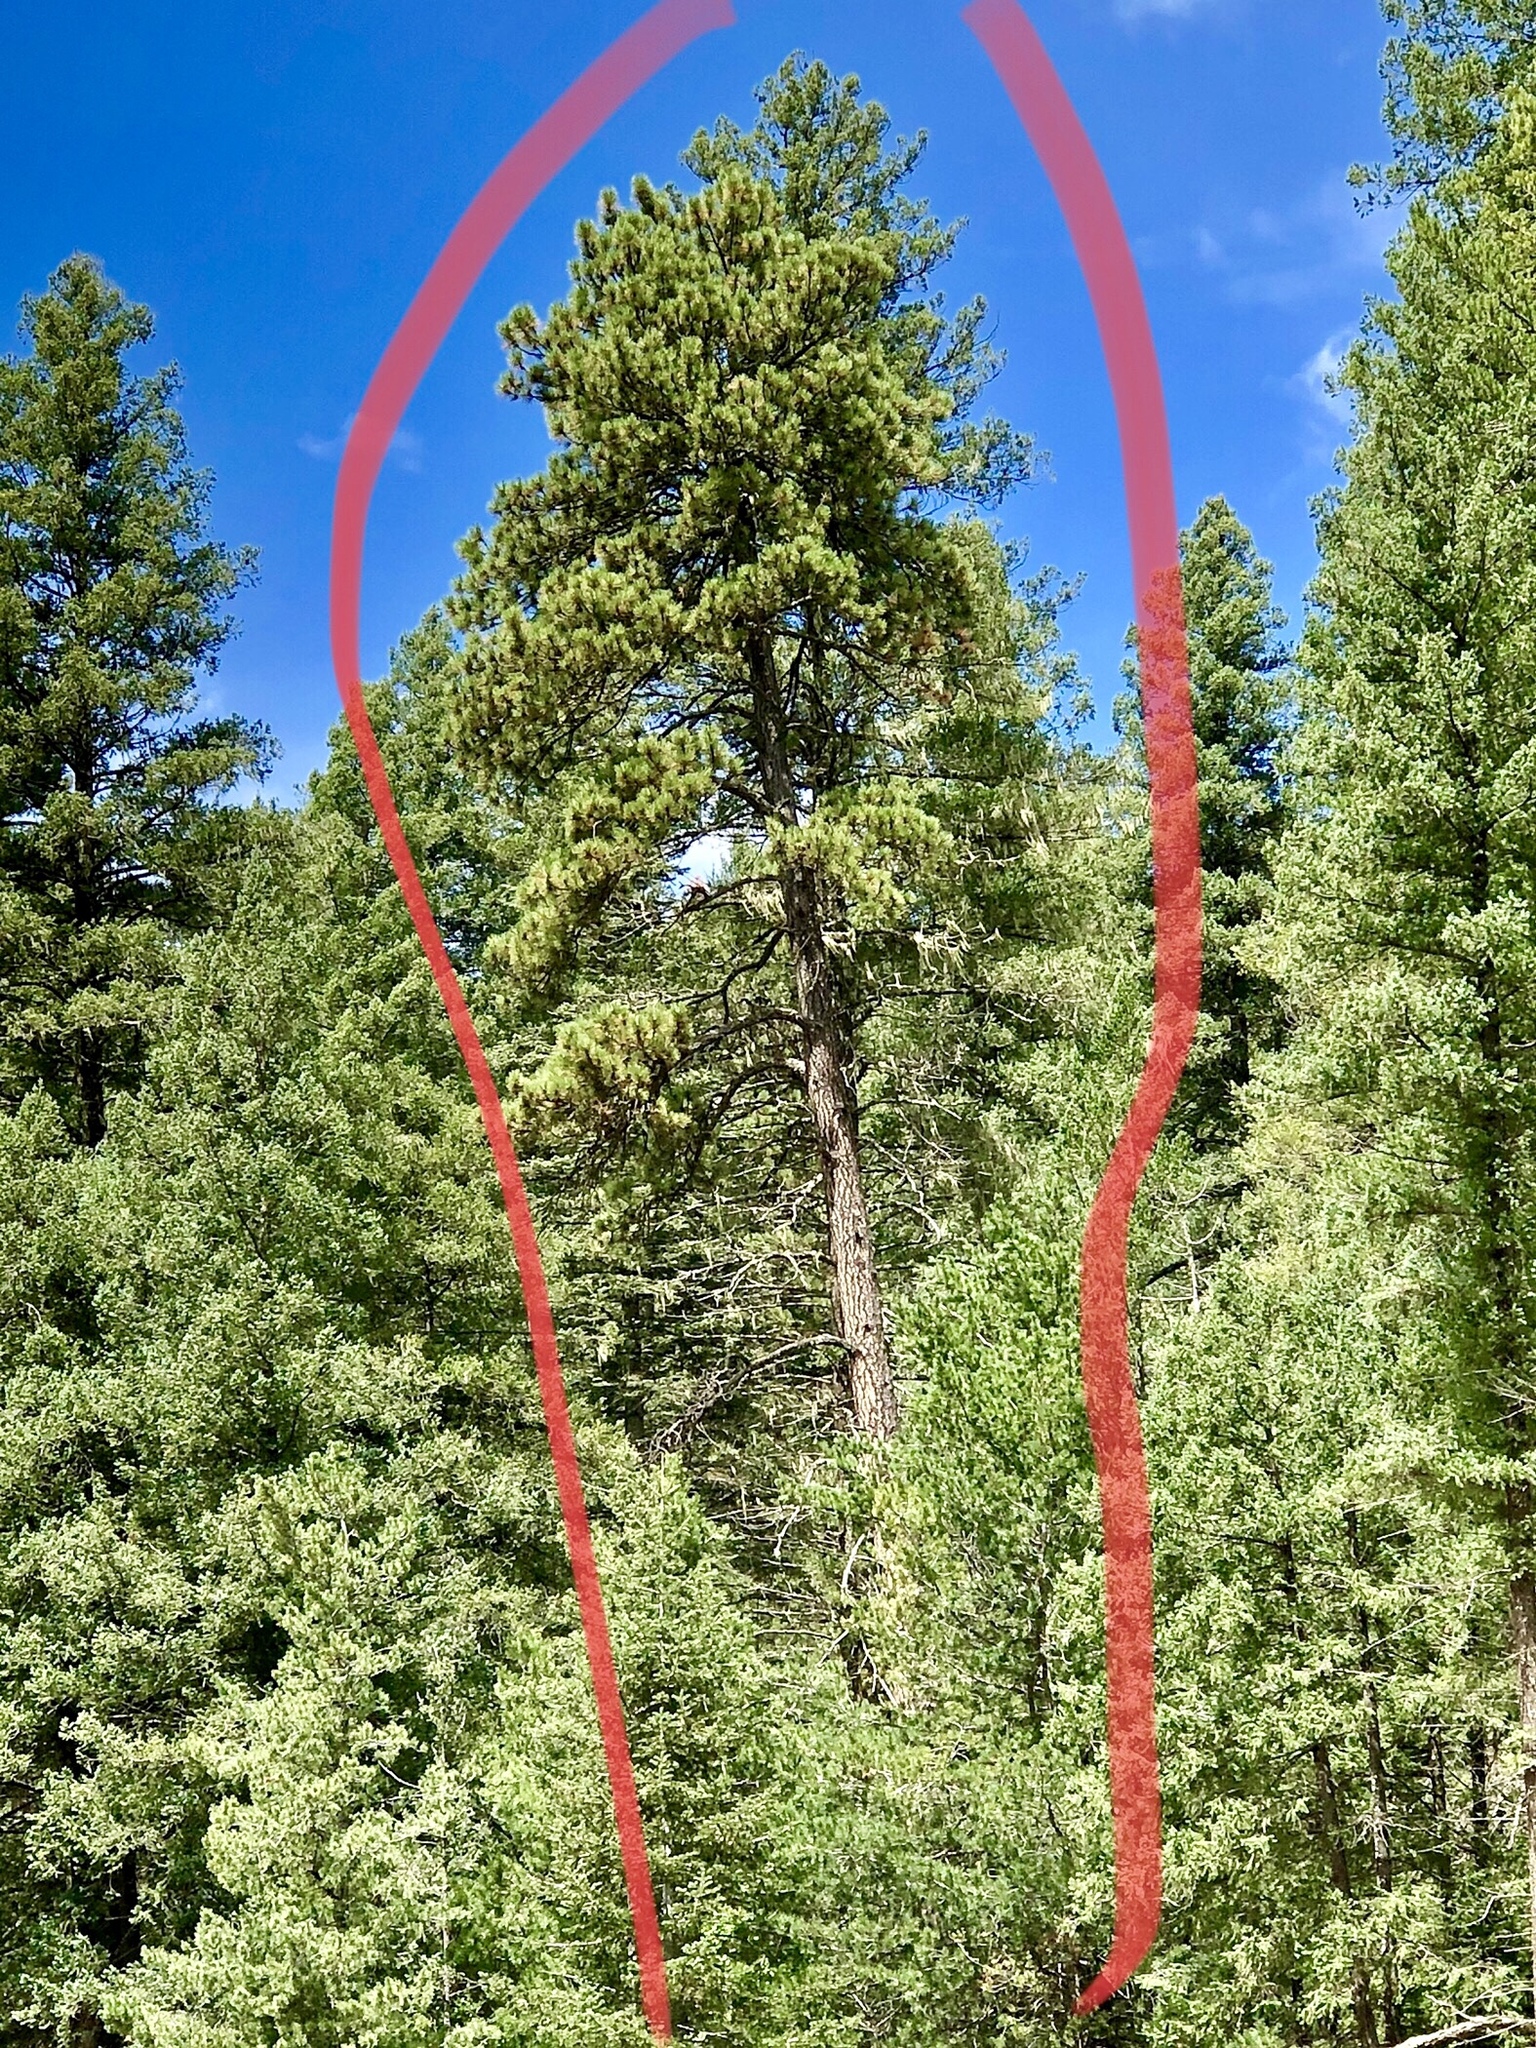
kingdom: Plantae
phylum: Tracheophyta
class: Pinopsida
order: Pinales
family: Pinaceae
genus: Pinus
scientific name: Pinus ponderosa
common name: Western yellow-pine
